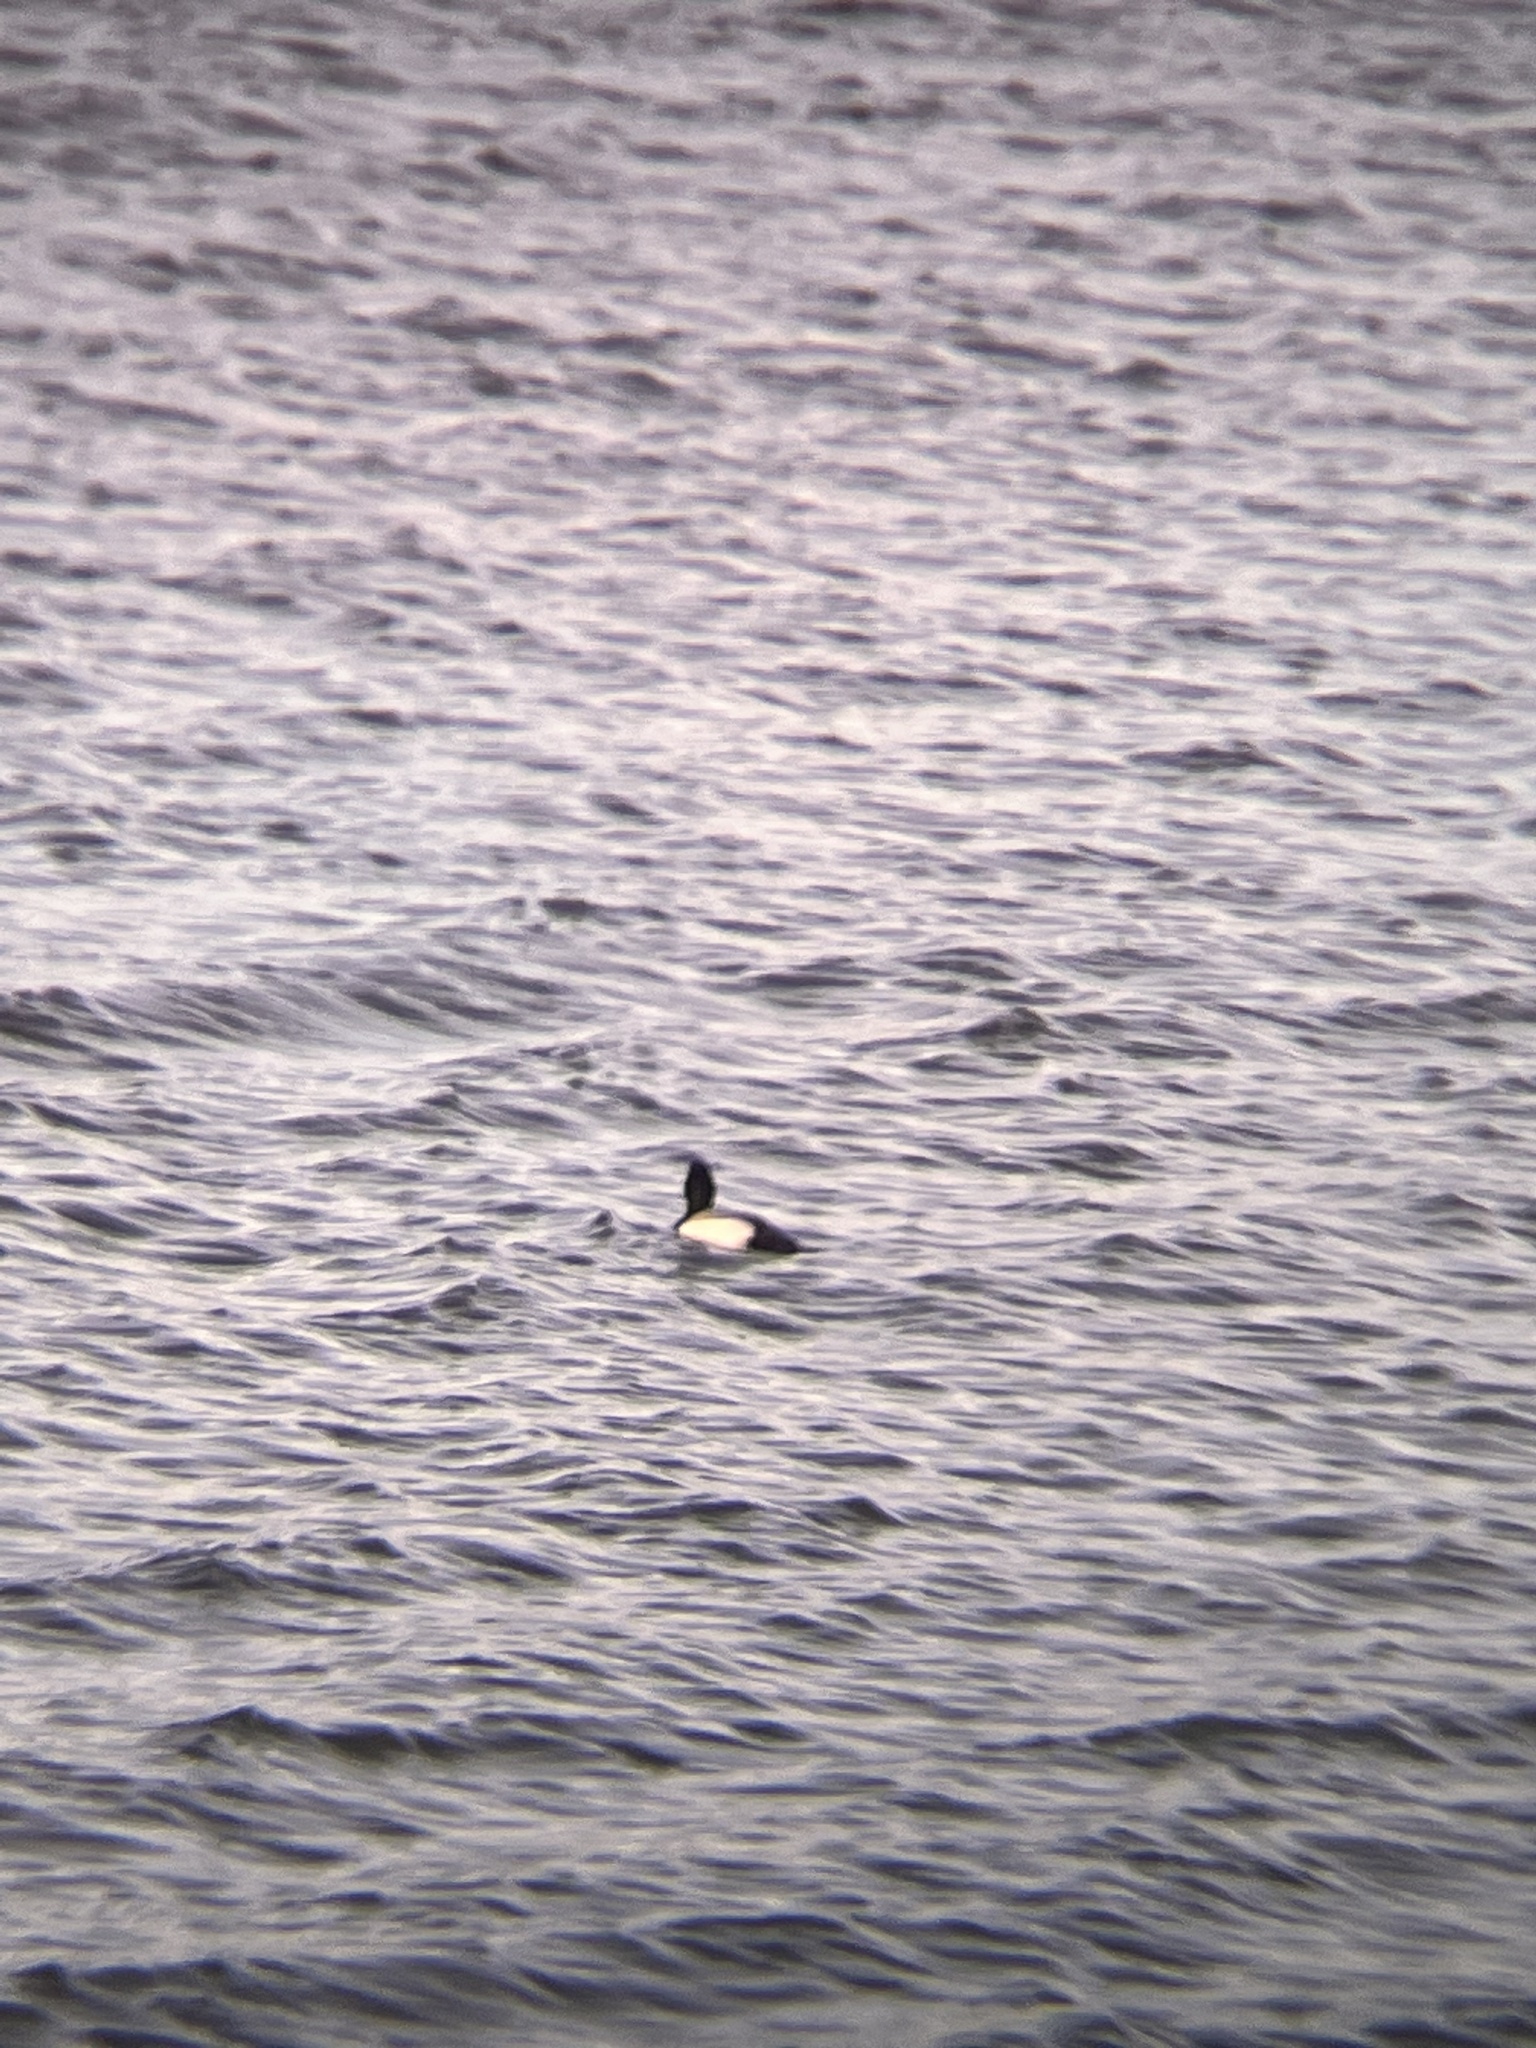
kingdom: Animalia
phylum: Chordata
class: Aves
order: Anseriformes
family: Anatidae
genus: Aythya
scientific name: Aythya affinis
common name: Lesser scaup
